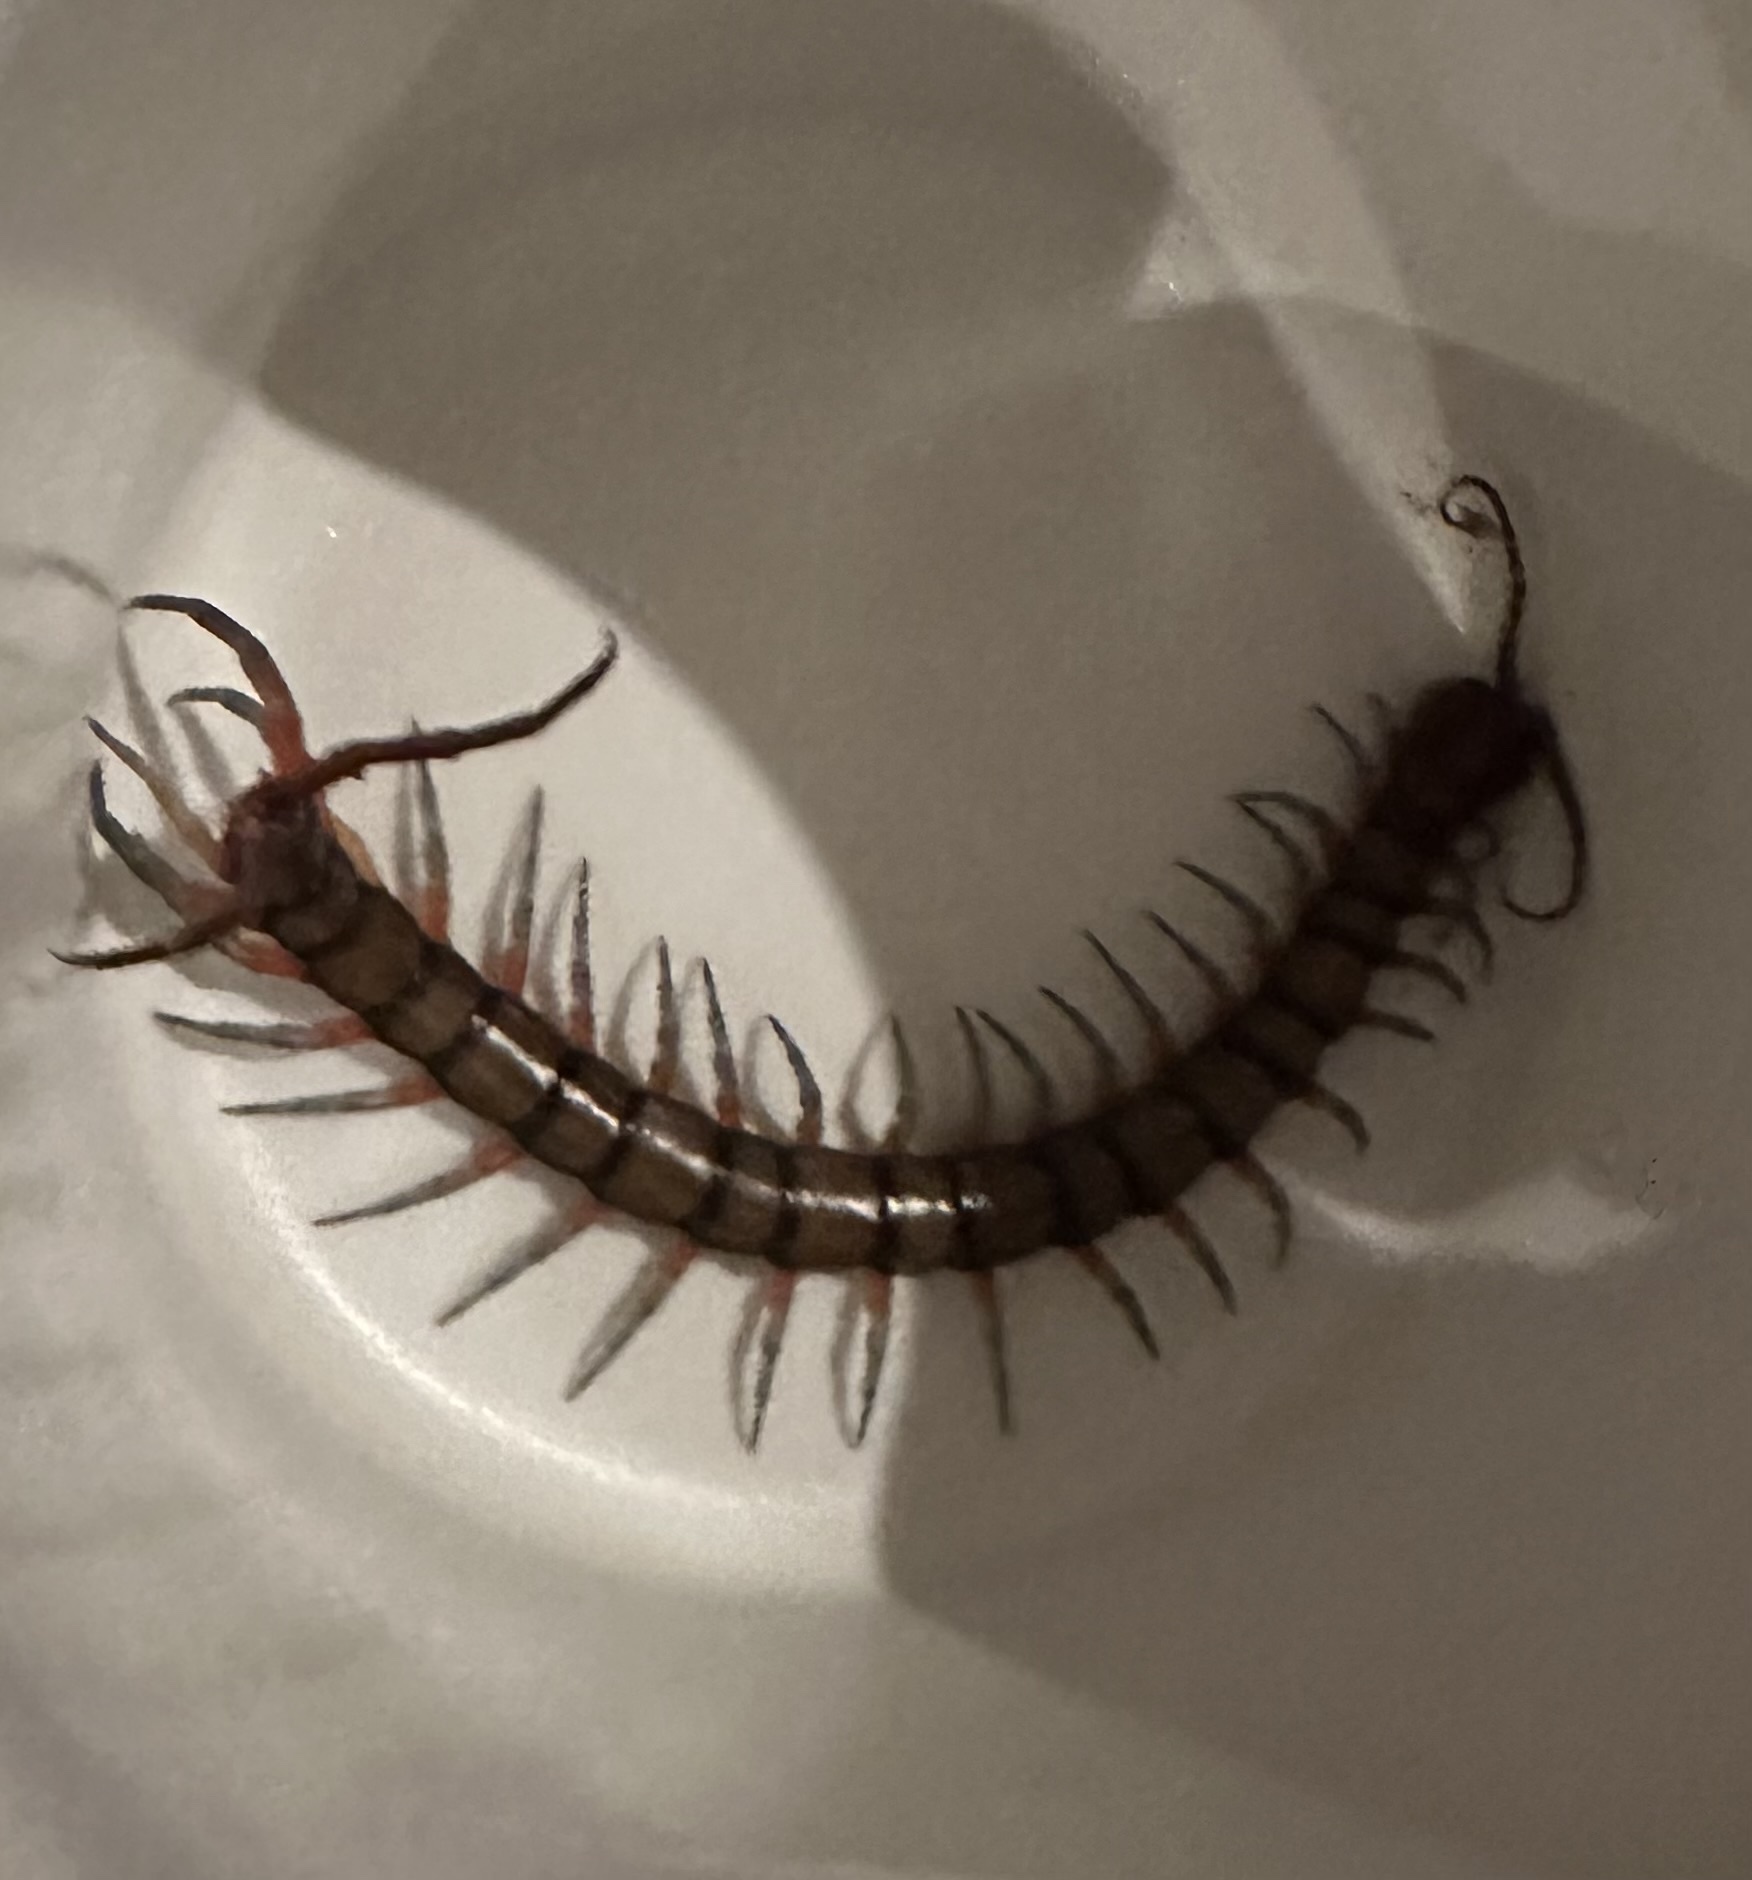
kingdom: Animalia
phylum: Arthropoda
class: Chilopoda
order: Scolopendromorpha
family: Scolopendridae
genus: Scolopendra
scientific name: Scolopendra subspinipes
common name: Centipede
